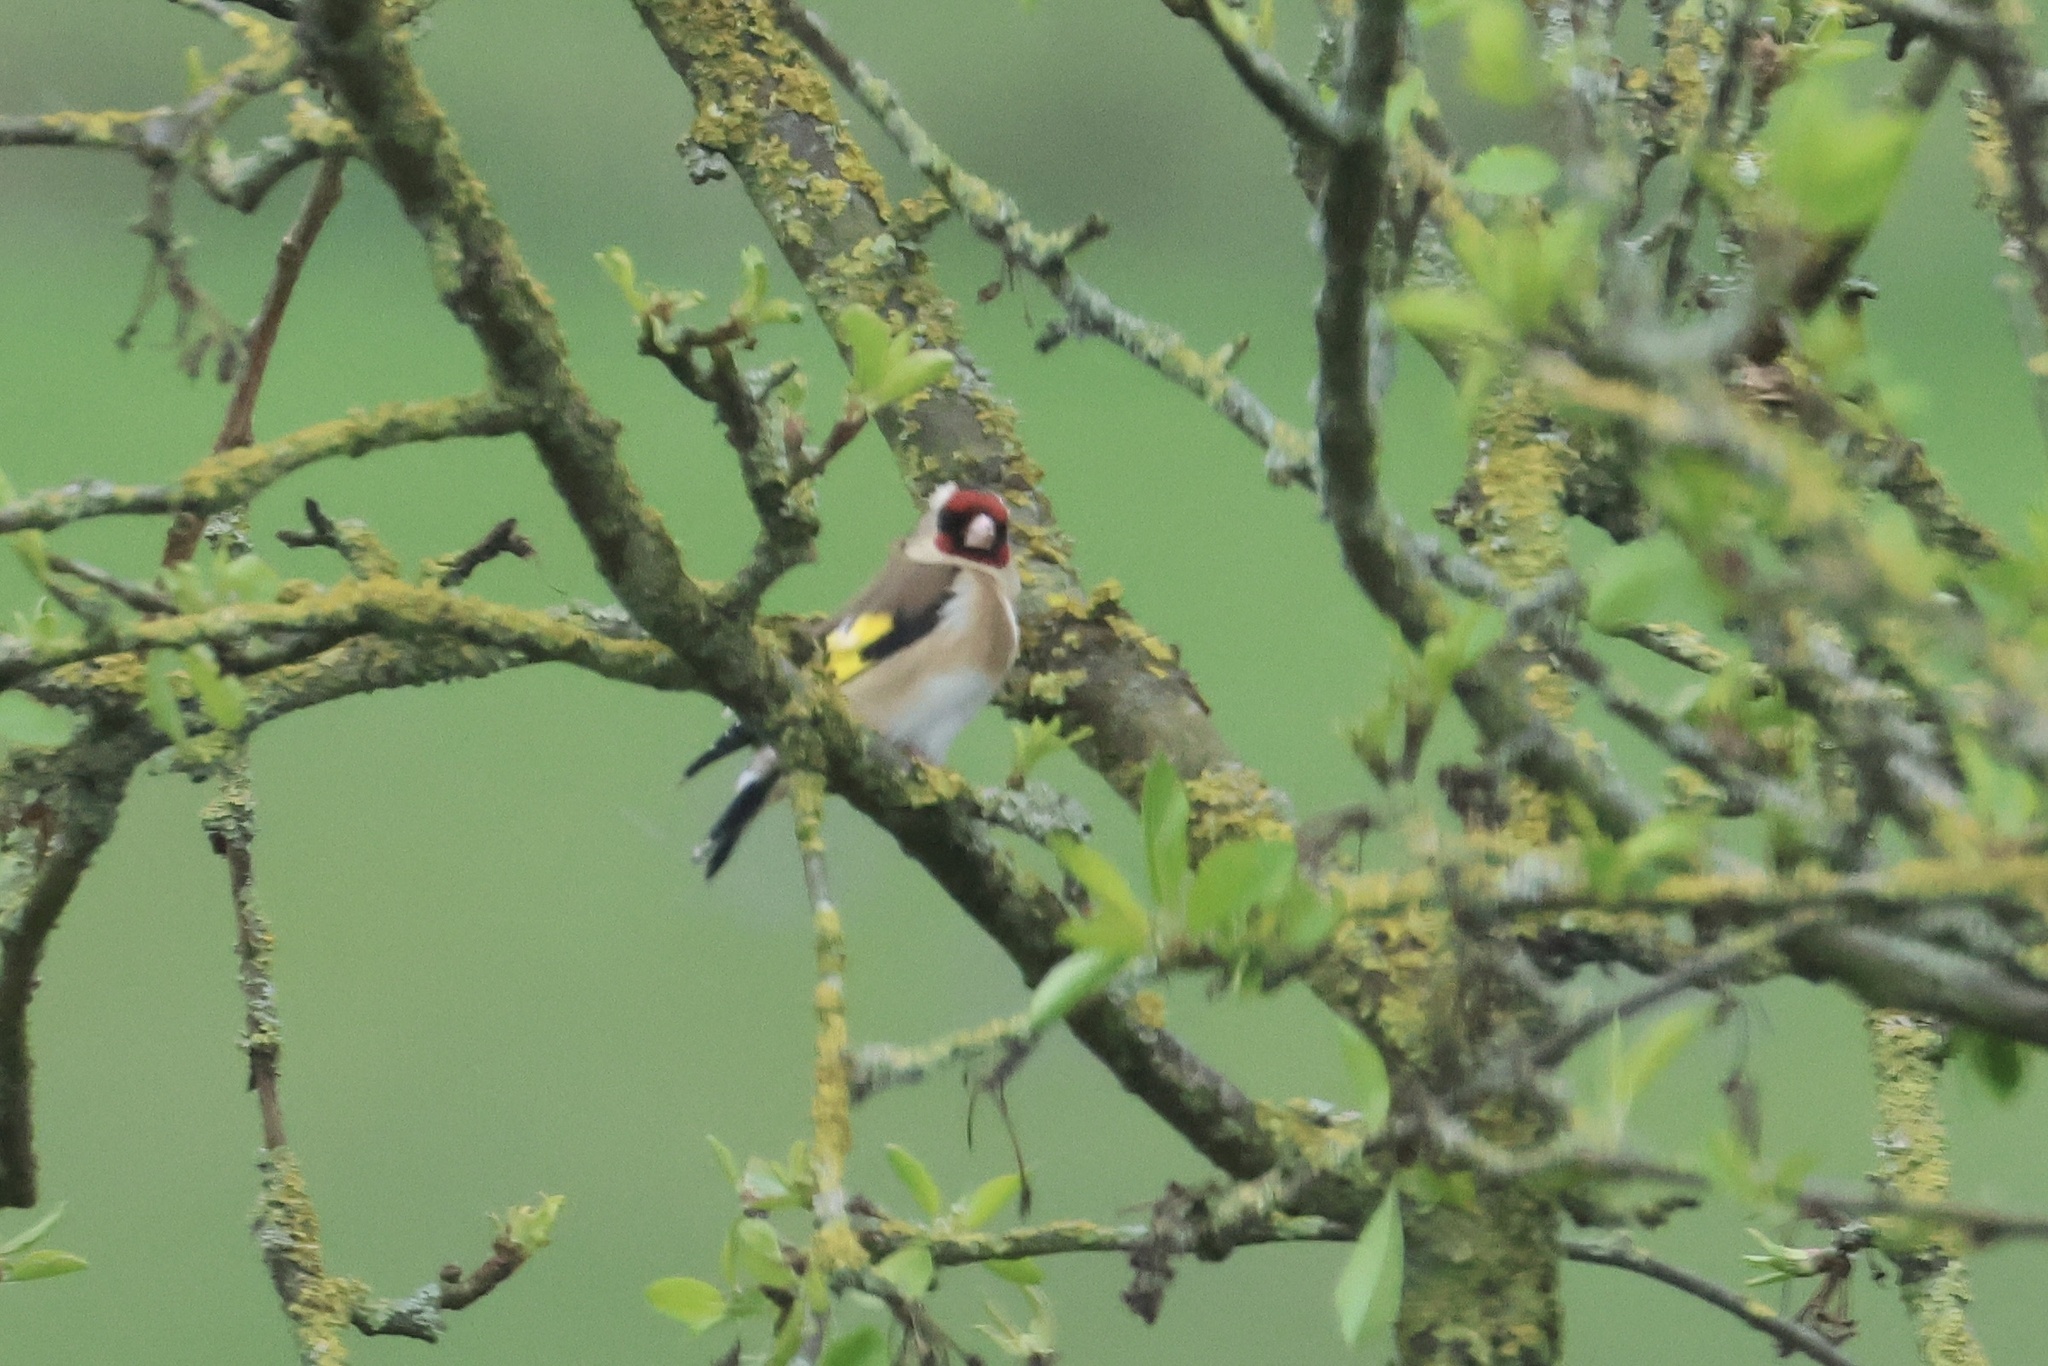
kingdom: Animalia
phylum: Chordata
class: Aves
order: Passeriformes
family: Fringillidae
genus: Carduelis
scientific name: Carduelis carduelis
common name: European goldfinch
